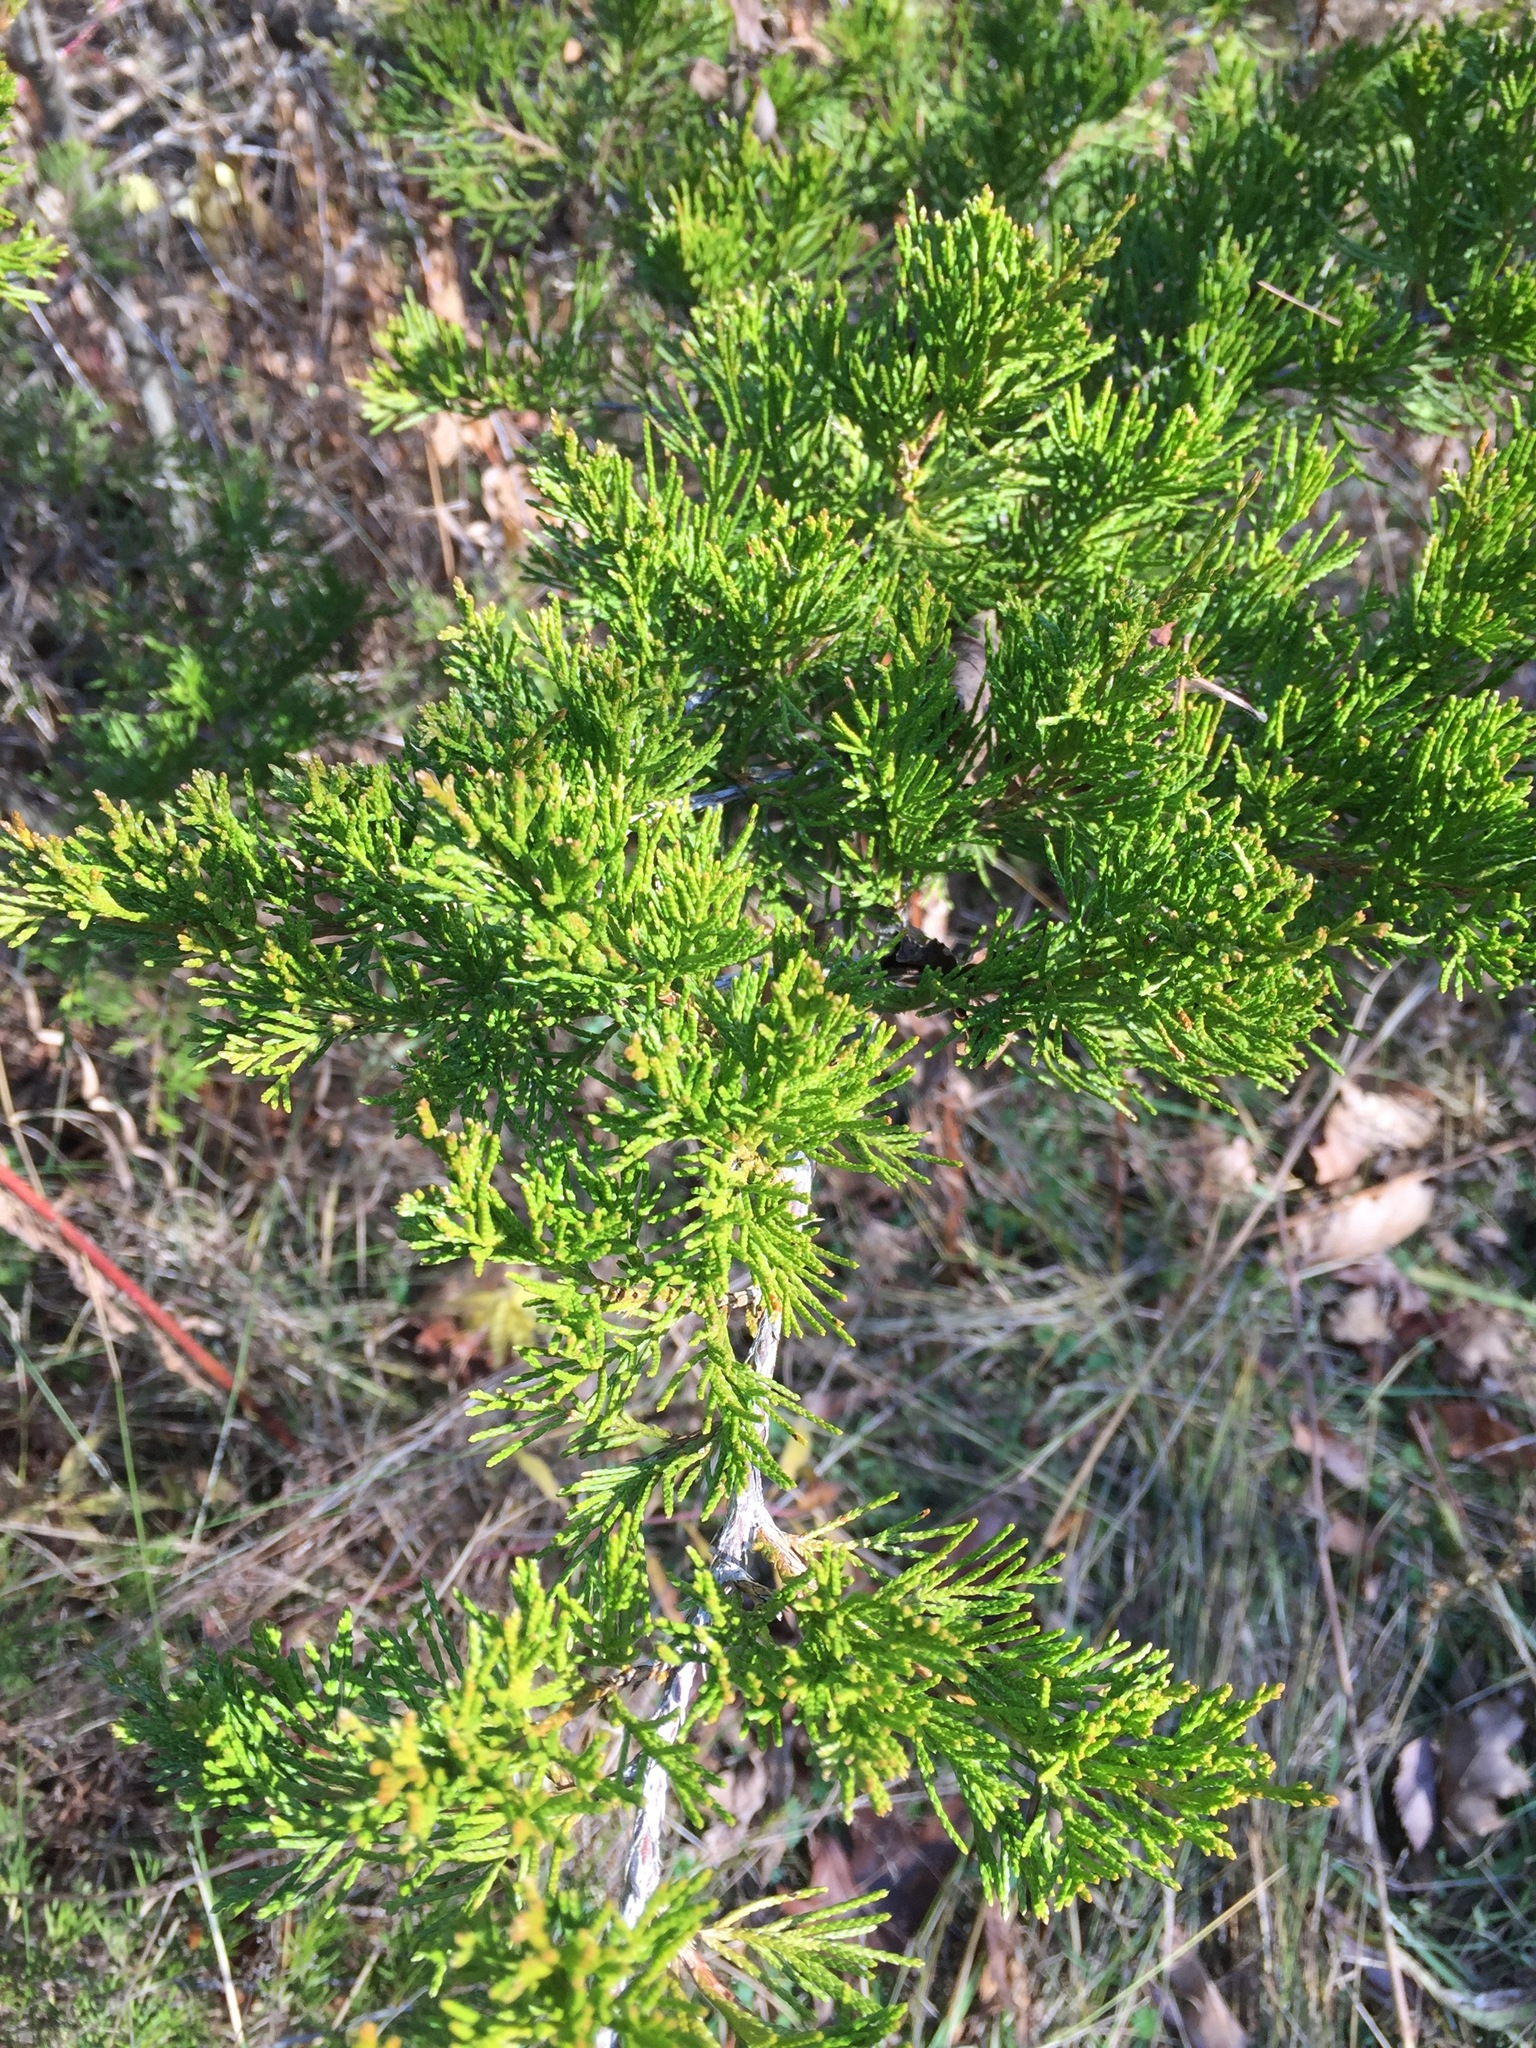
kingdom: Plantae
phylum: Tracheophyta
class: Pinopsida
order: Pinales
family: Cupressaceae
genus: Juniperus
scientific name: Juniperus virginiana
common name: Red juniper
